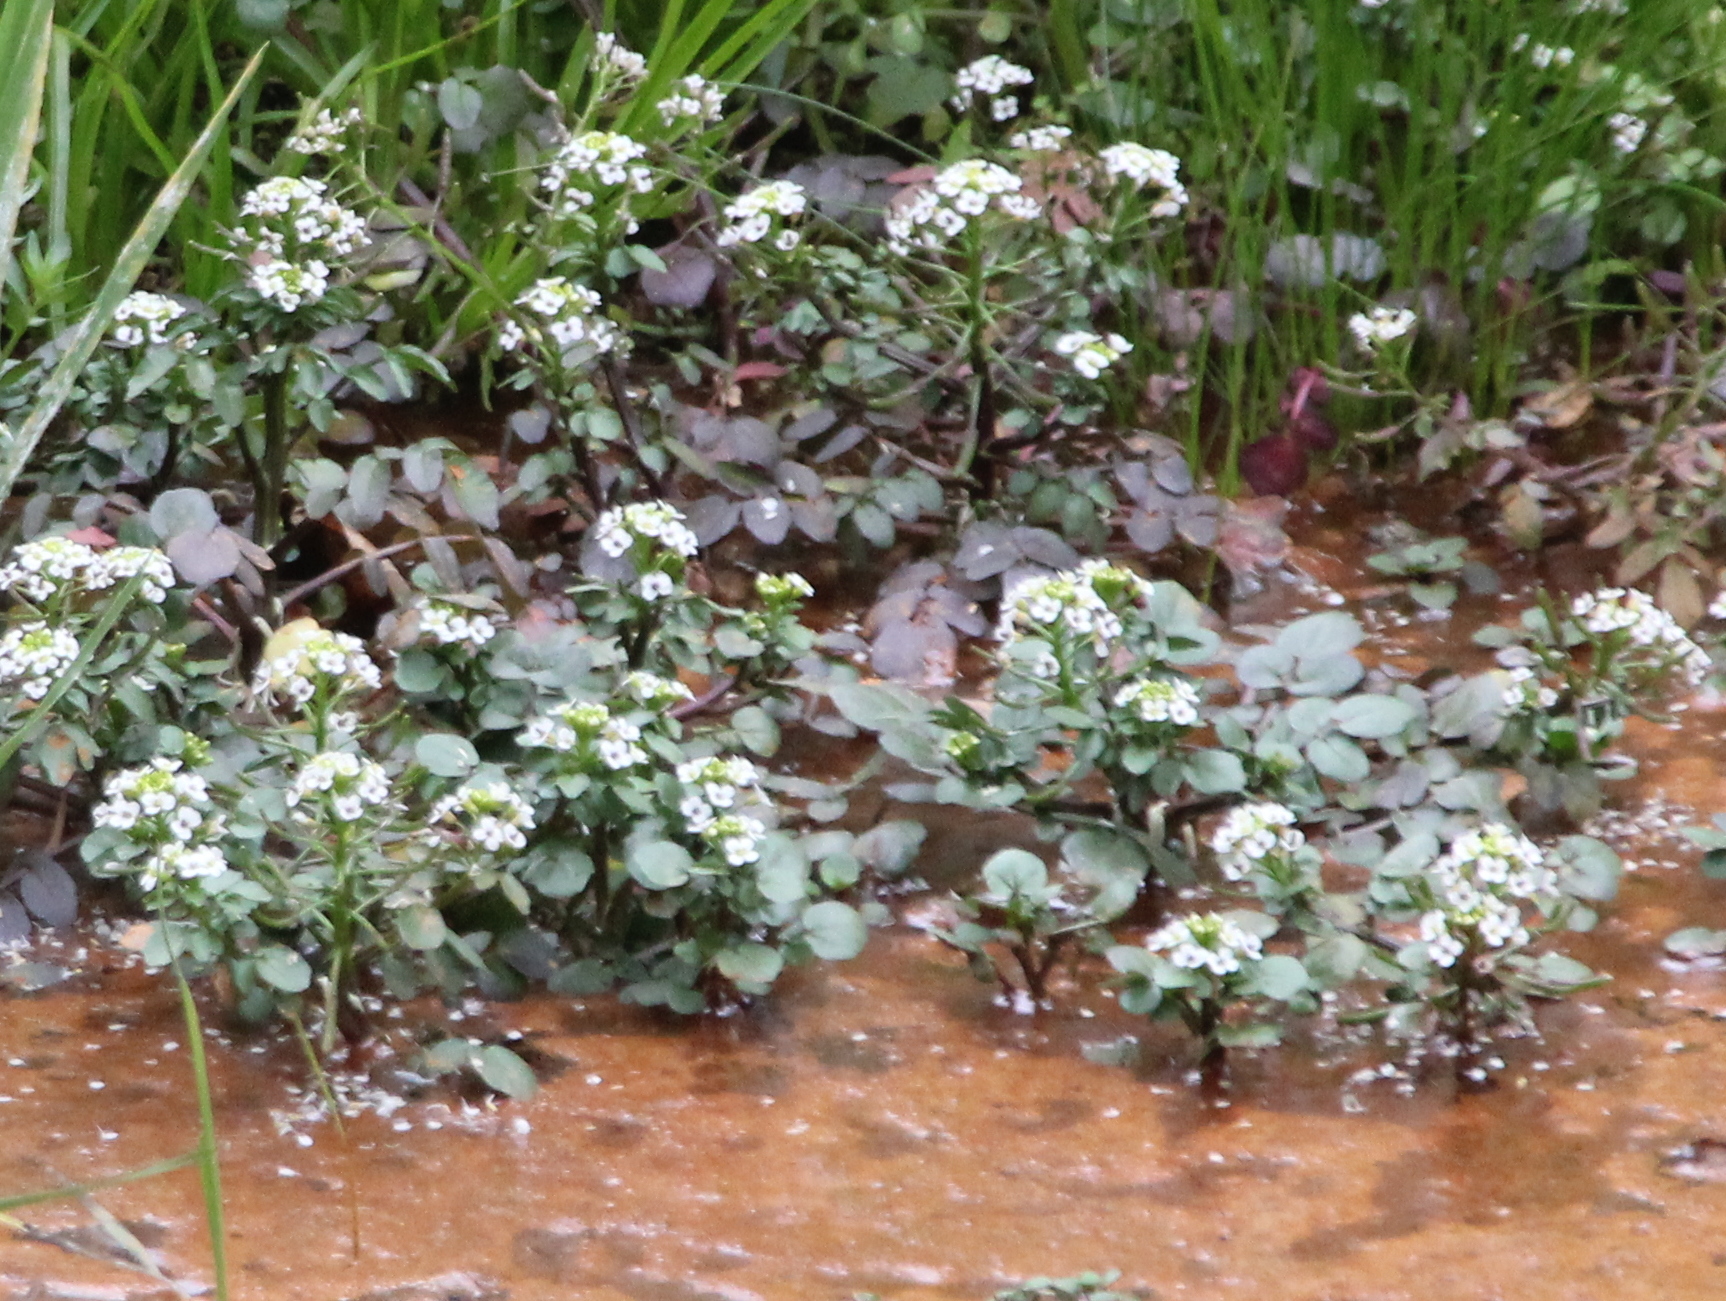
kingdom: Plantae
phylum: Tracheophyta
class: Magnoliopsida
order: Brassicales
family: Brassicaceae
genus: Nasturtium
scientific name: Nasturtium officinale
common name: Watercress
